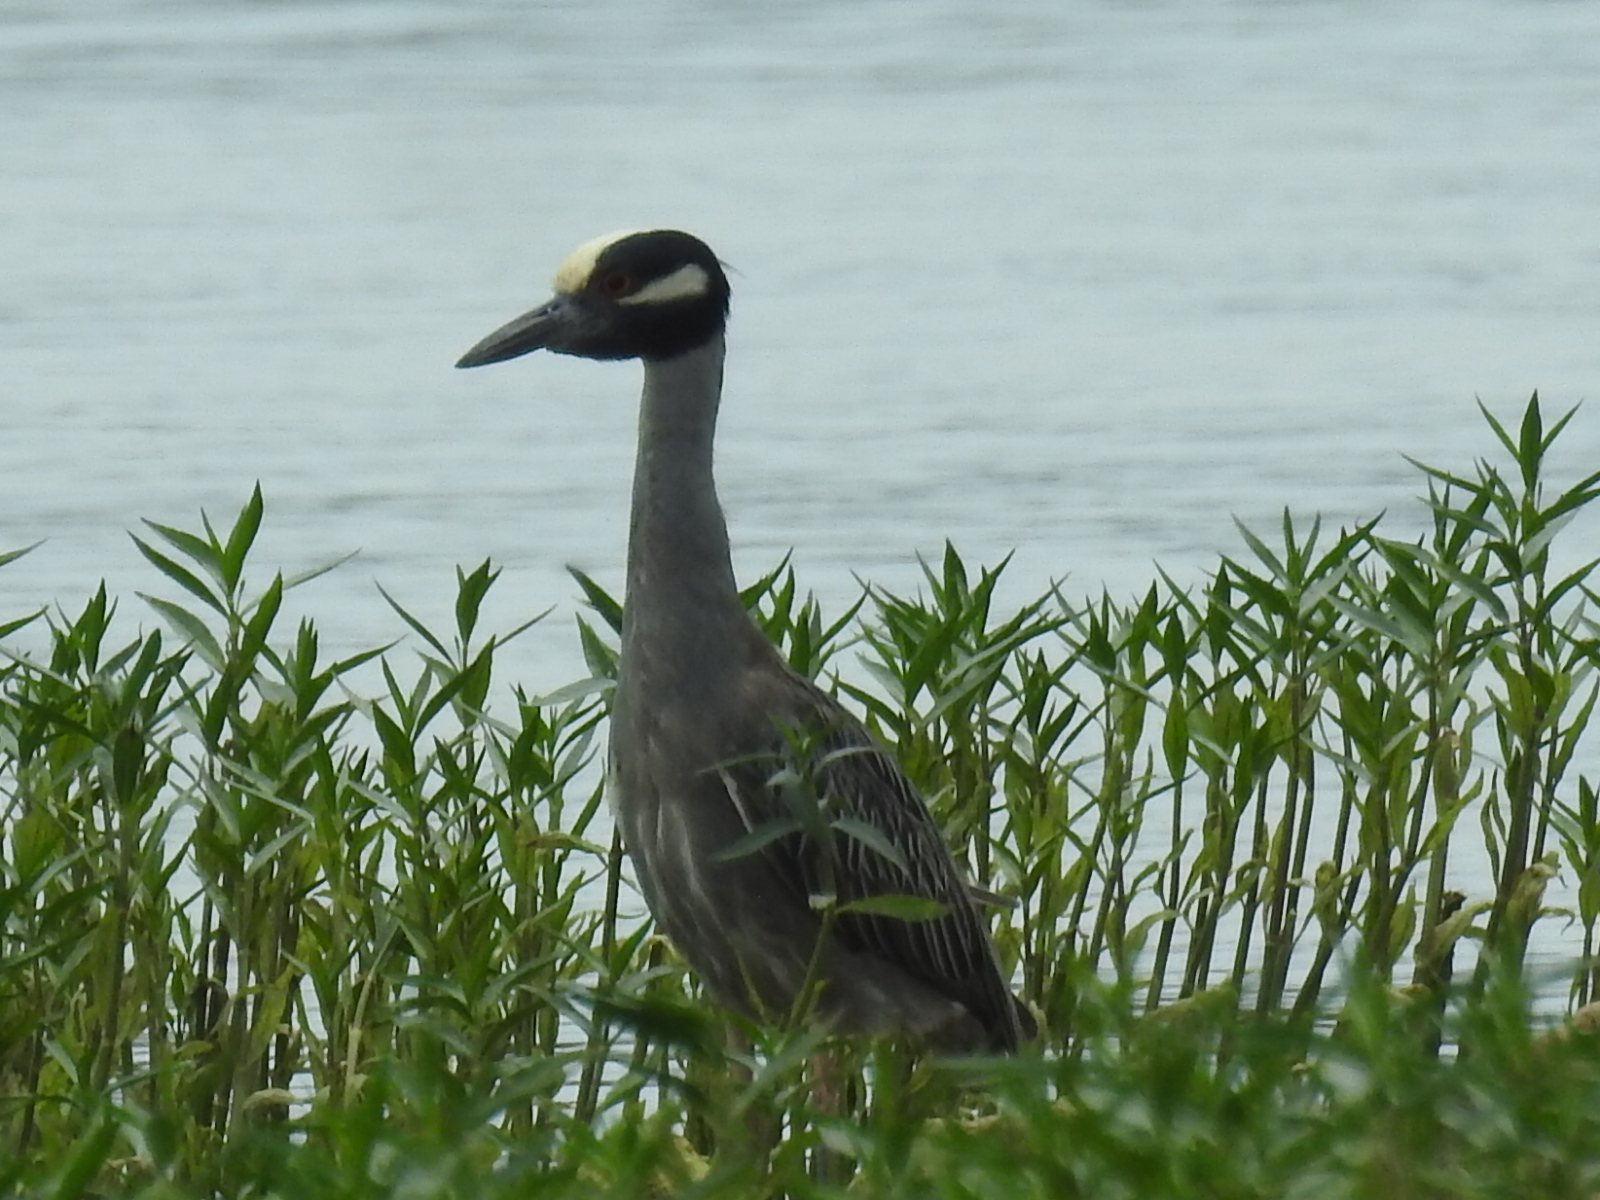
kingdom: Animalia
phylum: Chordata
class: Aves
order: Pelecaniformes
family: Ardeidae
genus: Nyctanassa
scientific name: Nyctanassa violacea
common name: Yellow-crowned night heron
